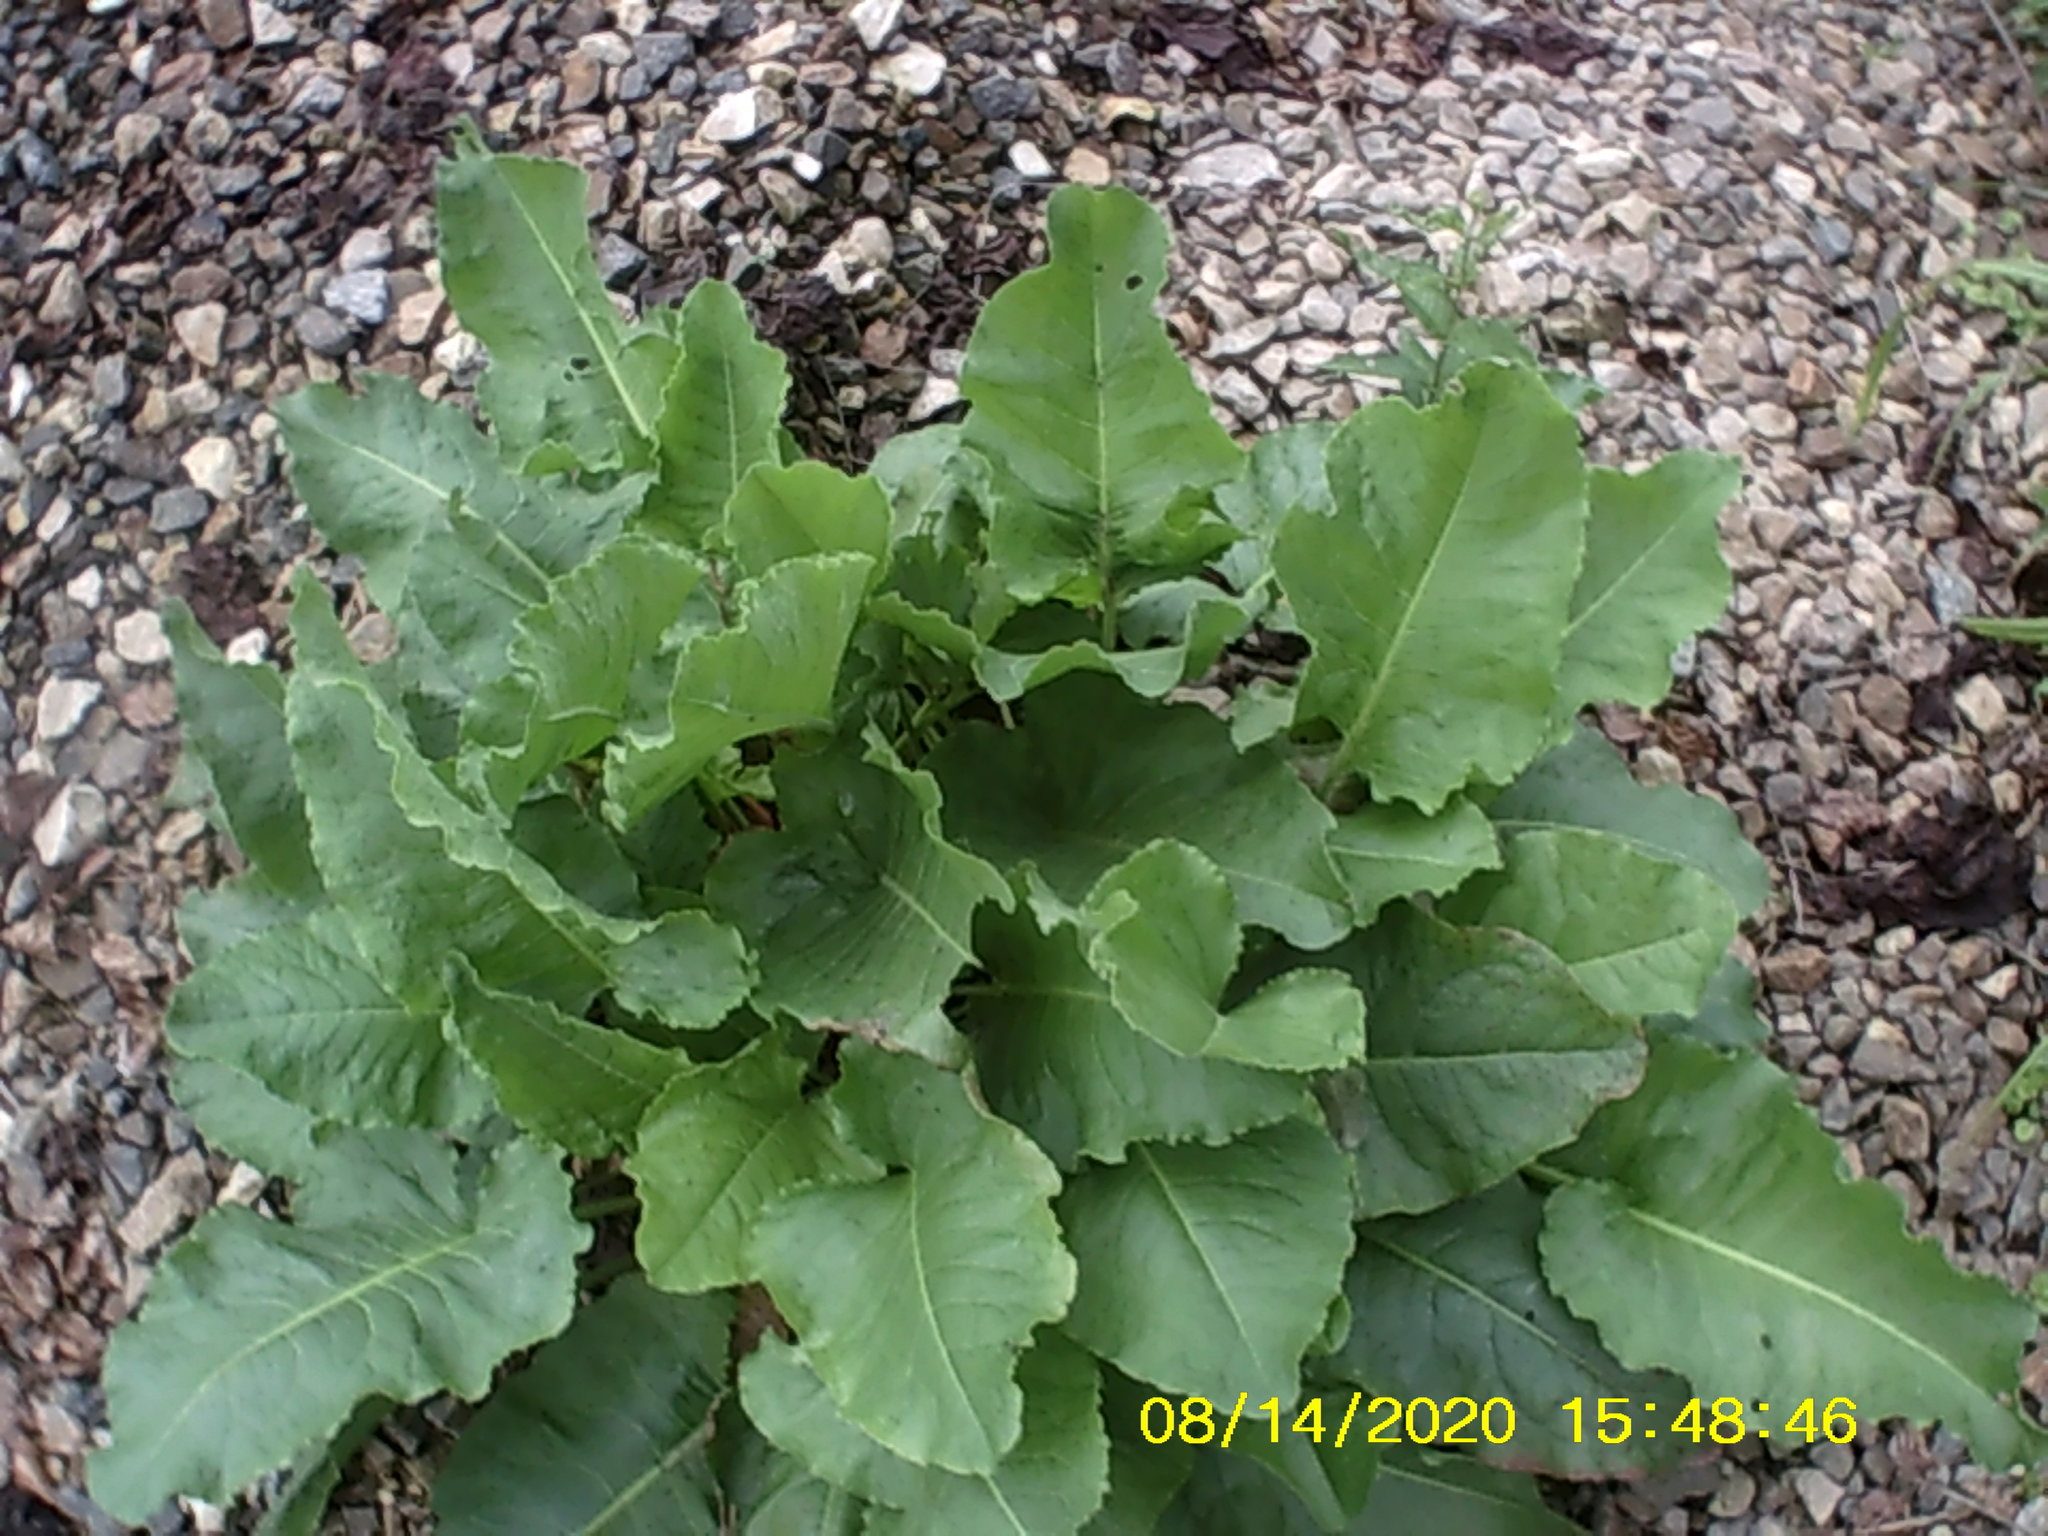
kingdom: Plantae
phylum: Tracheophyta
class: Magnoliopsida
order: Caryophyllales
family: Polygonaceae
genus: Rumex
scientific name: Rumex confertus
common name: Russian dock
